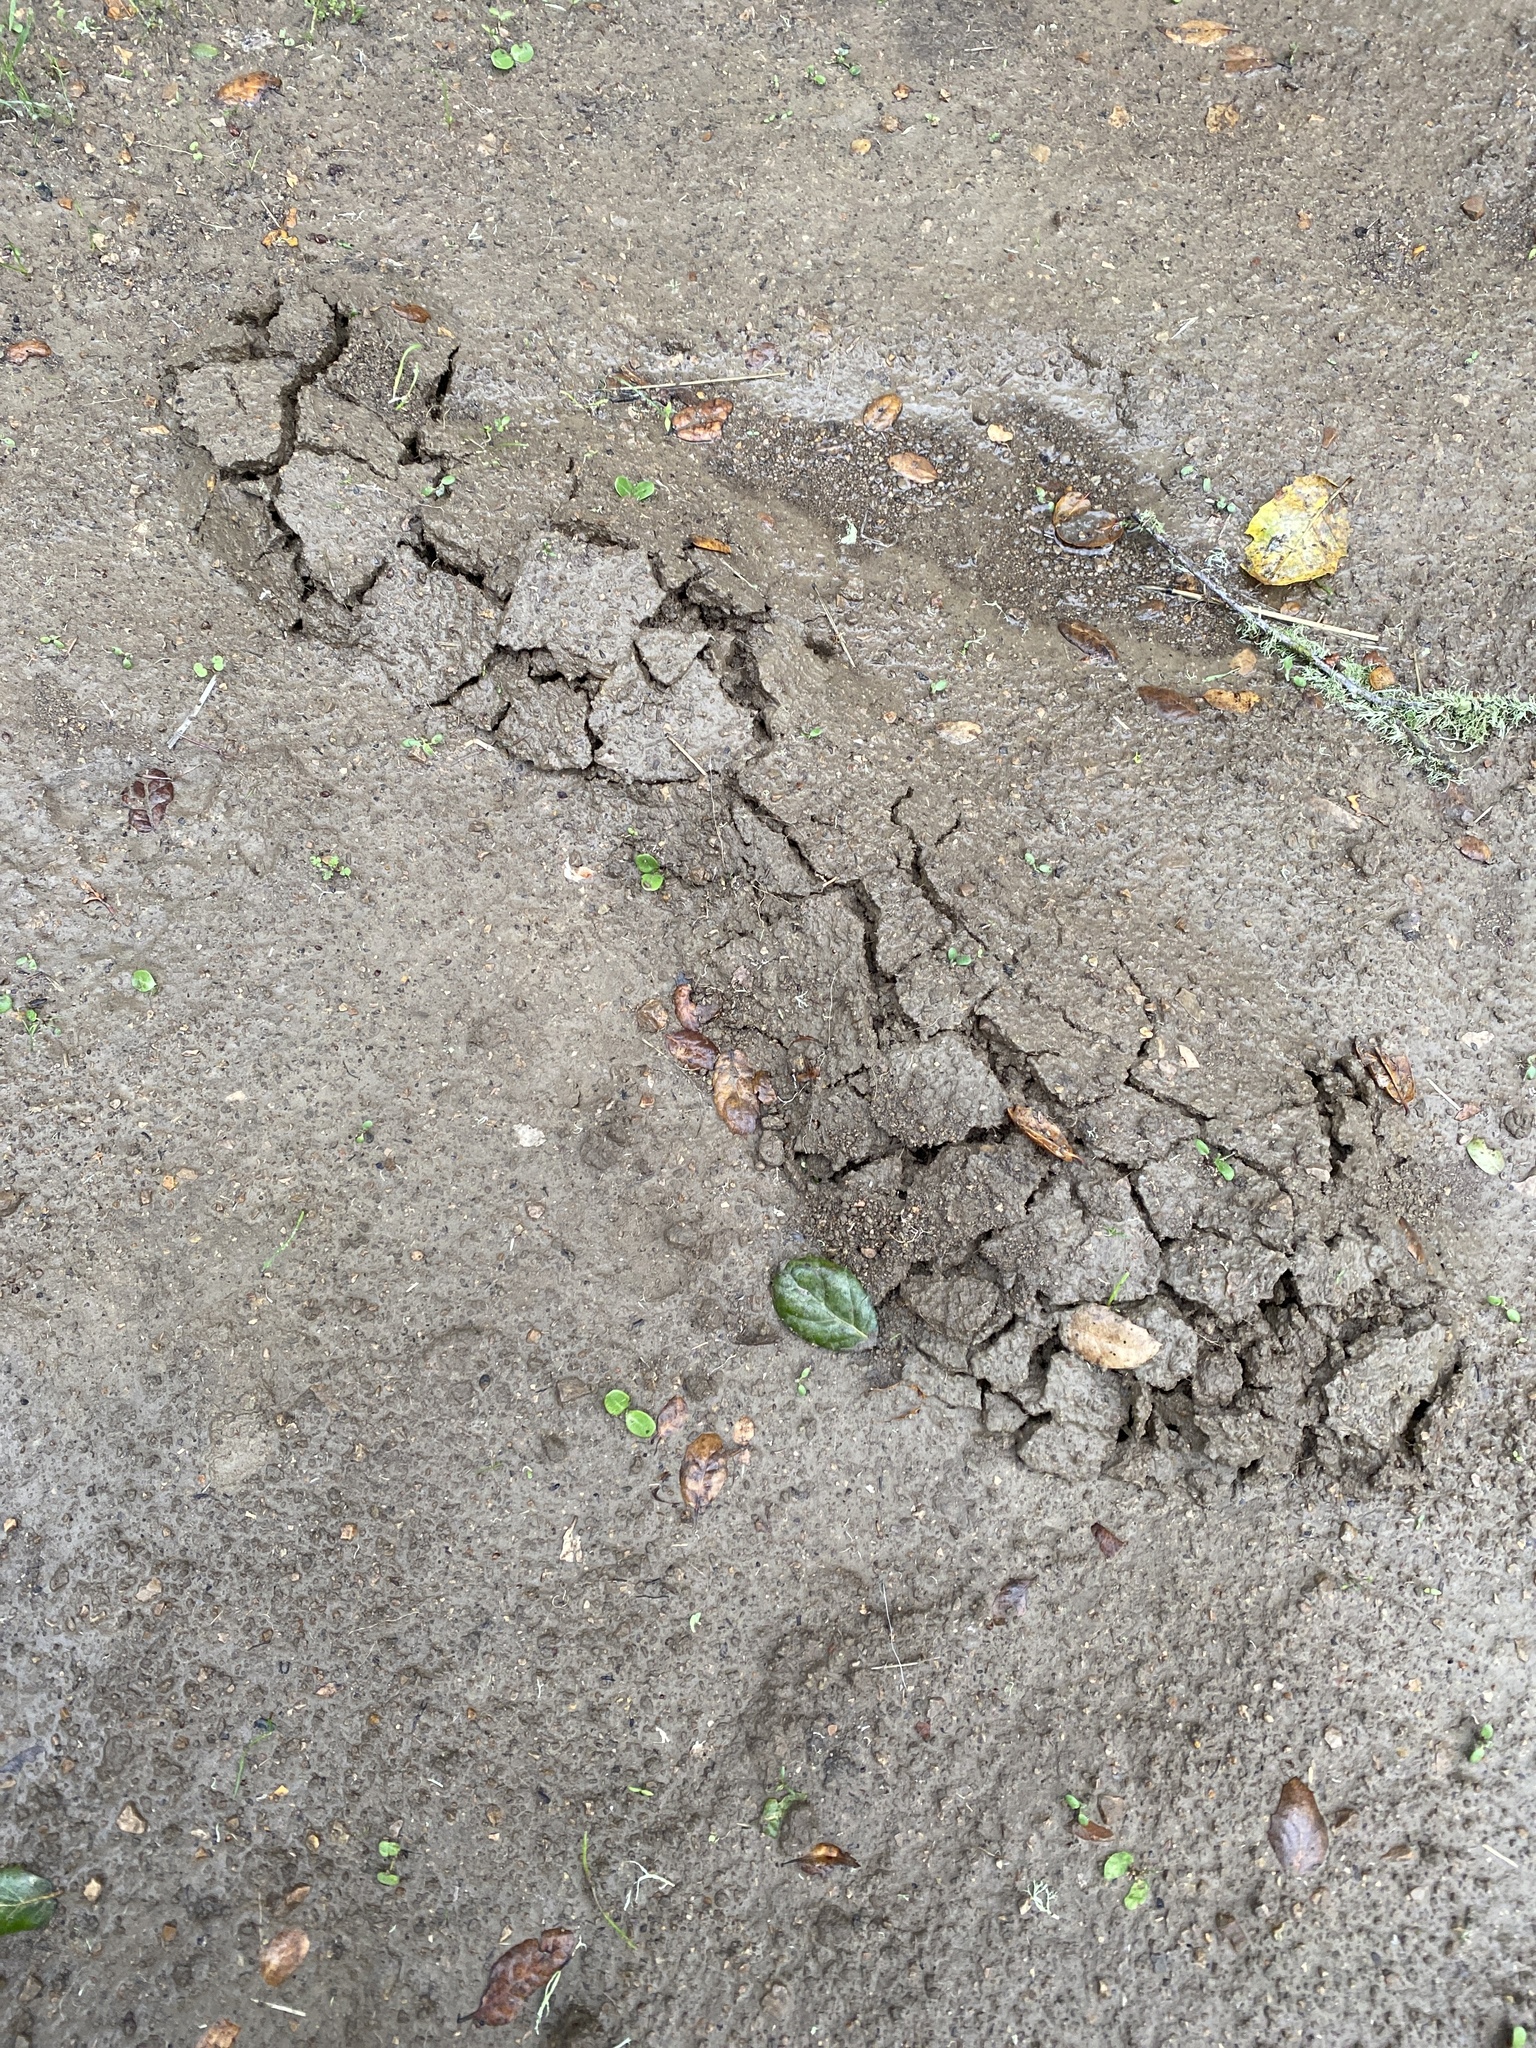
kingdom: Animalia
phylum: Chordata
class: Mammalia
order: Soricomorpha
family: Talpidae
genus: Scapanus
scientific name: Scapanus latimanus
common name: Broad-footed mole
